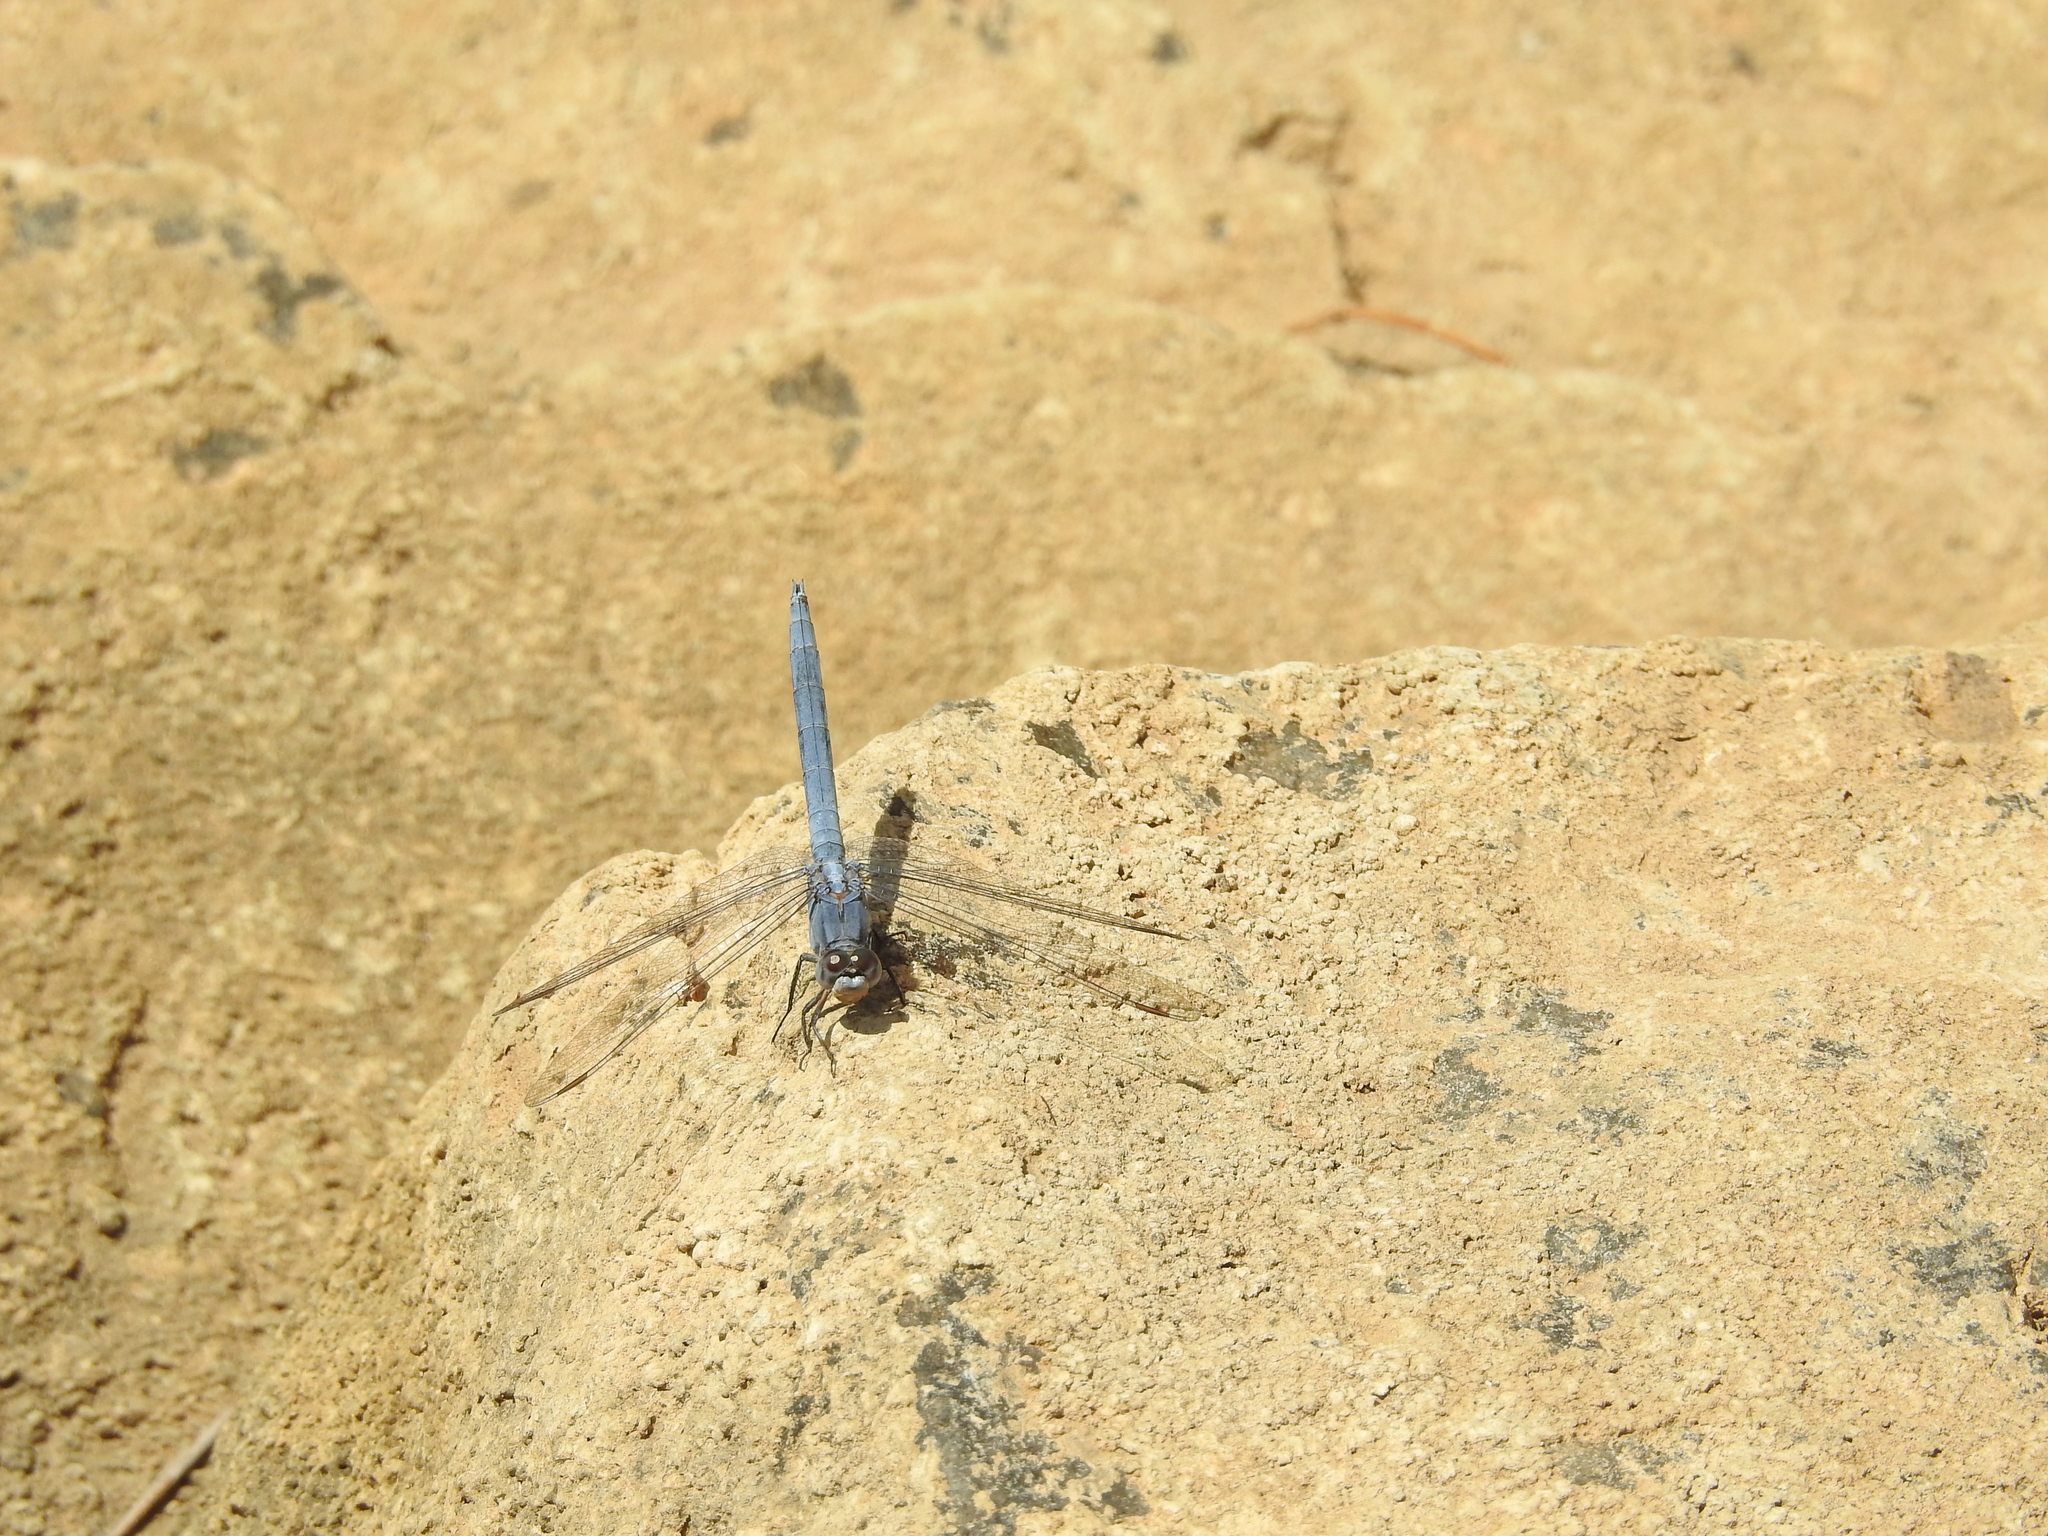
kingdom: Animalia
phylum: Arthropoda
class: Insecta
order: Odonata
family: Libellulidae
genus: Orthetrum
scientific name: Orthetrum taeniolatum
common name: Small skimmer
